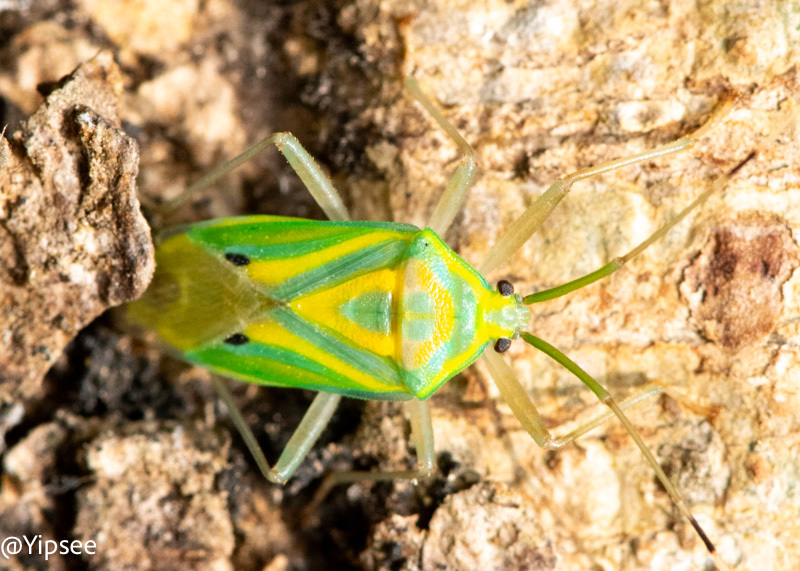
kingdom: Animalia
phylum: Arthropoda
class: Insecta
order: Hemiptera
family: Urostylididae
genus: Urolabida
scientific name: Urolabida
